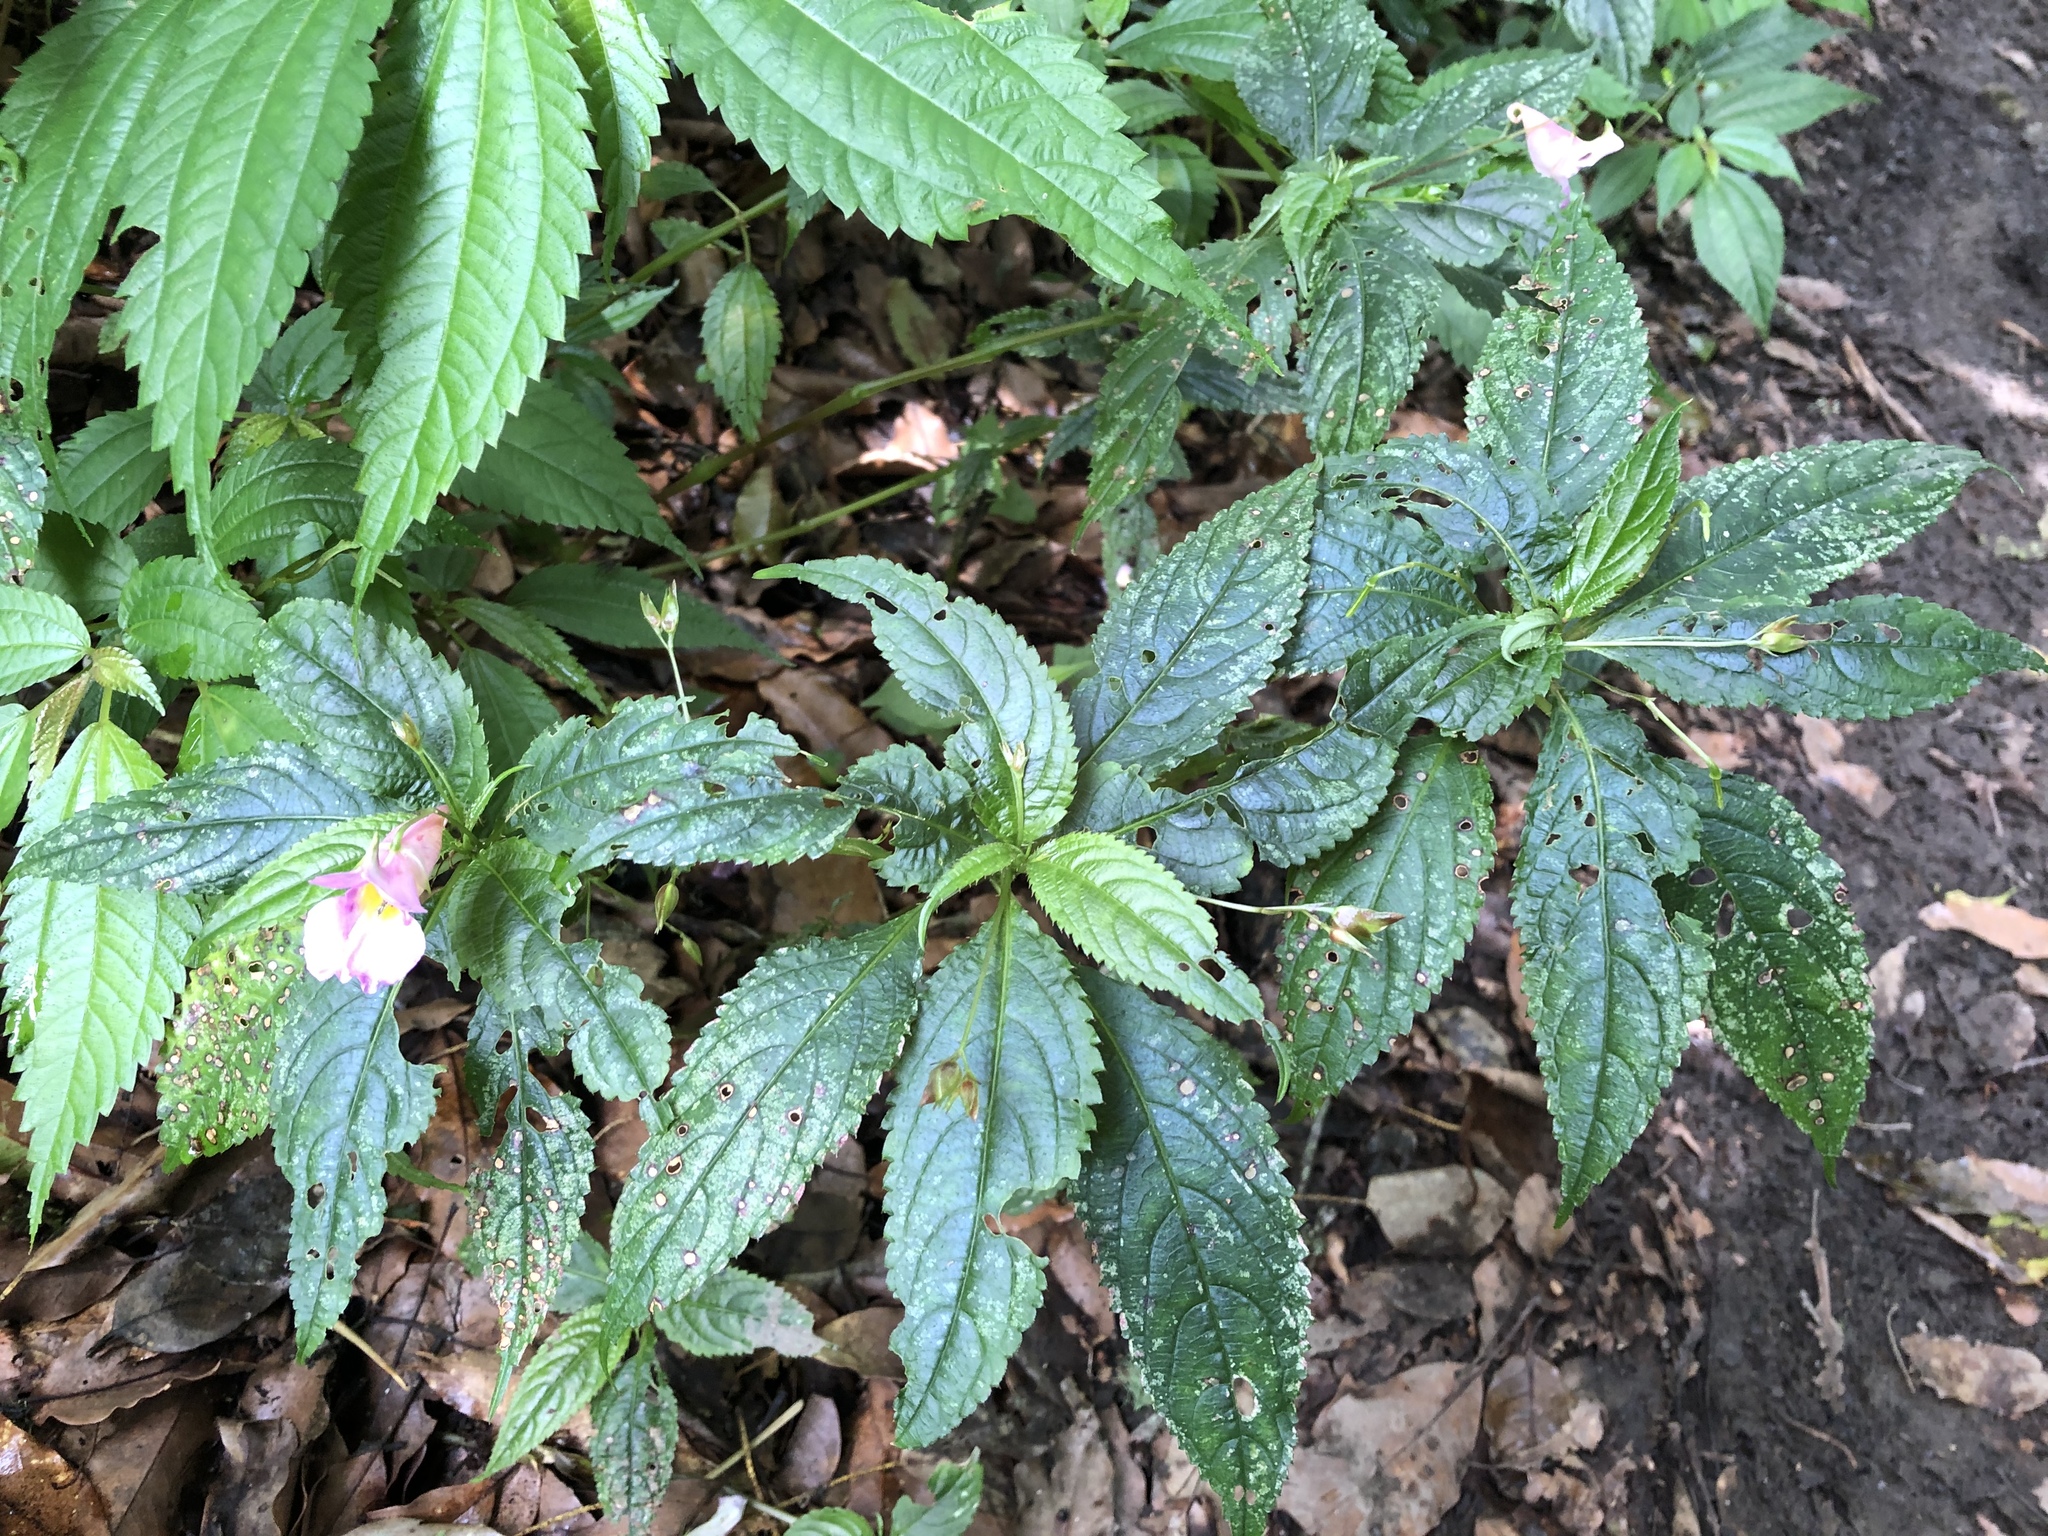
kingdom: Plantae
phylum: Tracheophyta
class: Magnoliopsida
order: Ericales
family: Balsaminaceae
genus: Impatiens
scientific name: Impatiens uniflora
